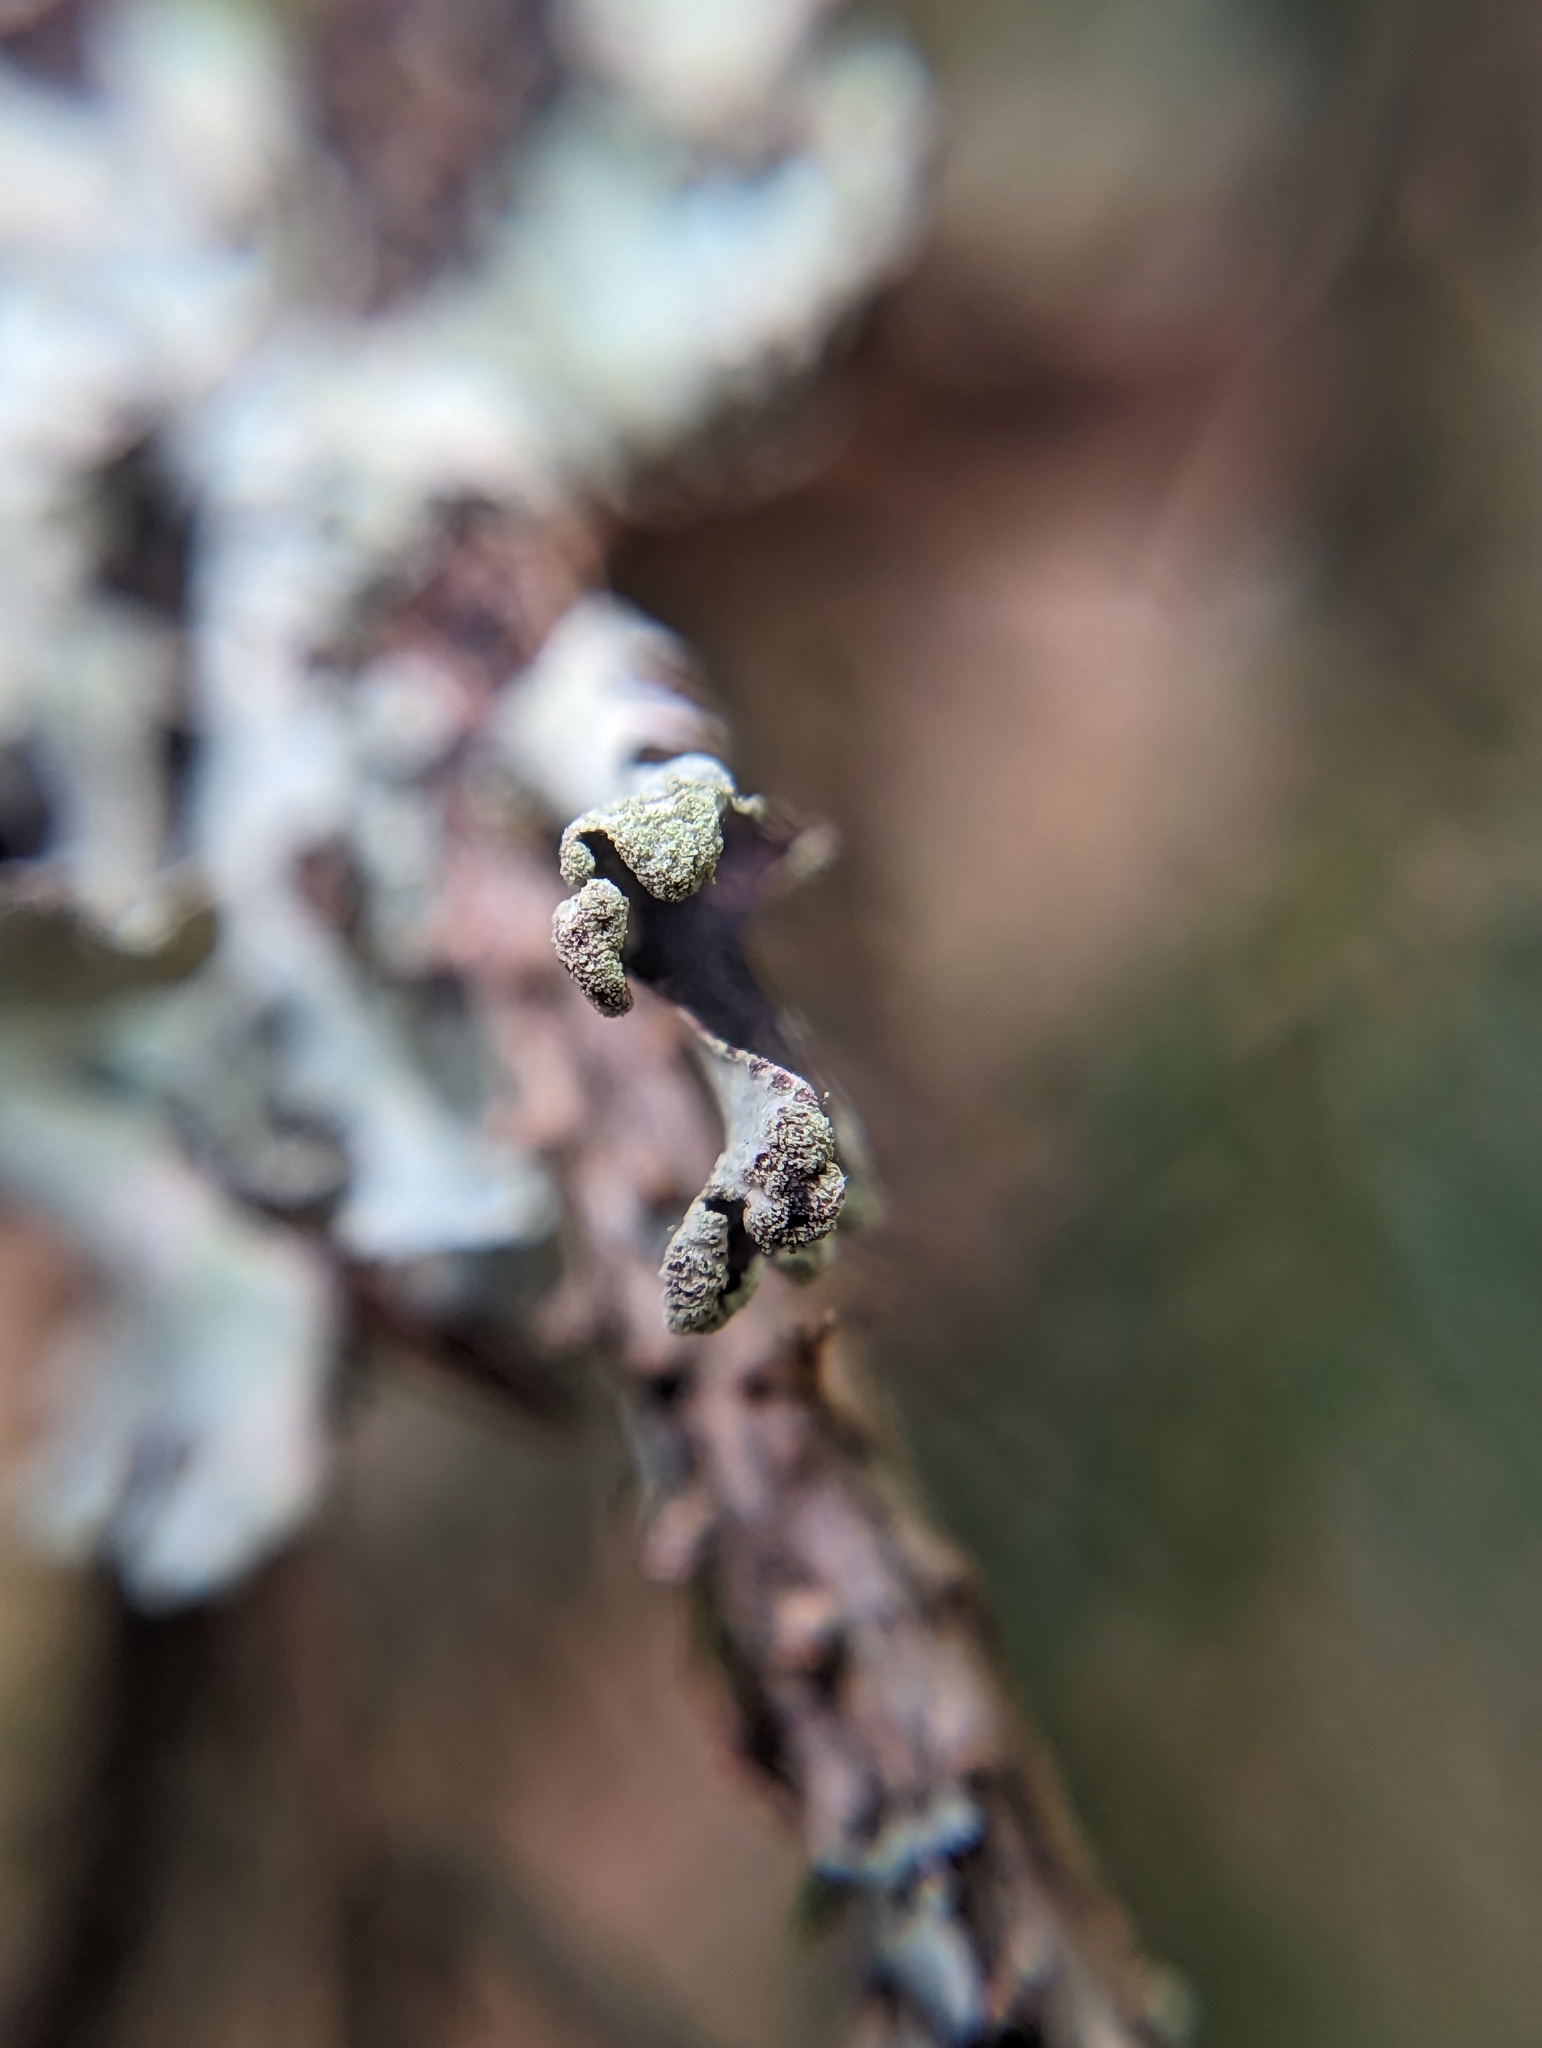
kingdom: Fungi
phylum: Ascomycota
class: Lecanoromycetes
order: Lecanorales
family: Parmeliaceae
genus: Hypotrachyna
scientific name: Hypotrachyna revoluta
